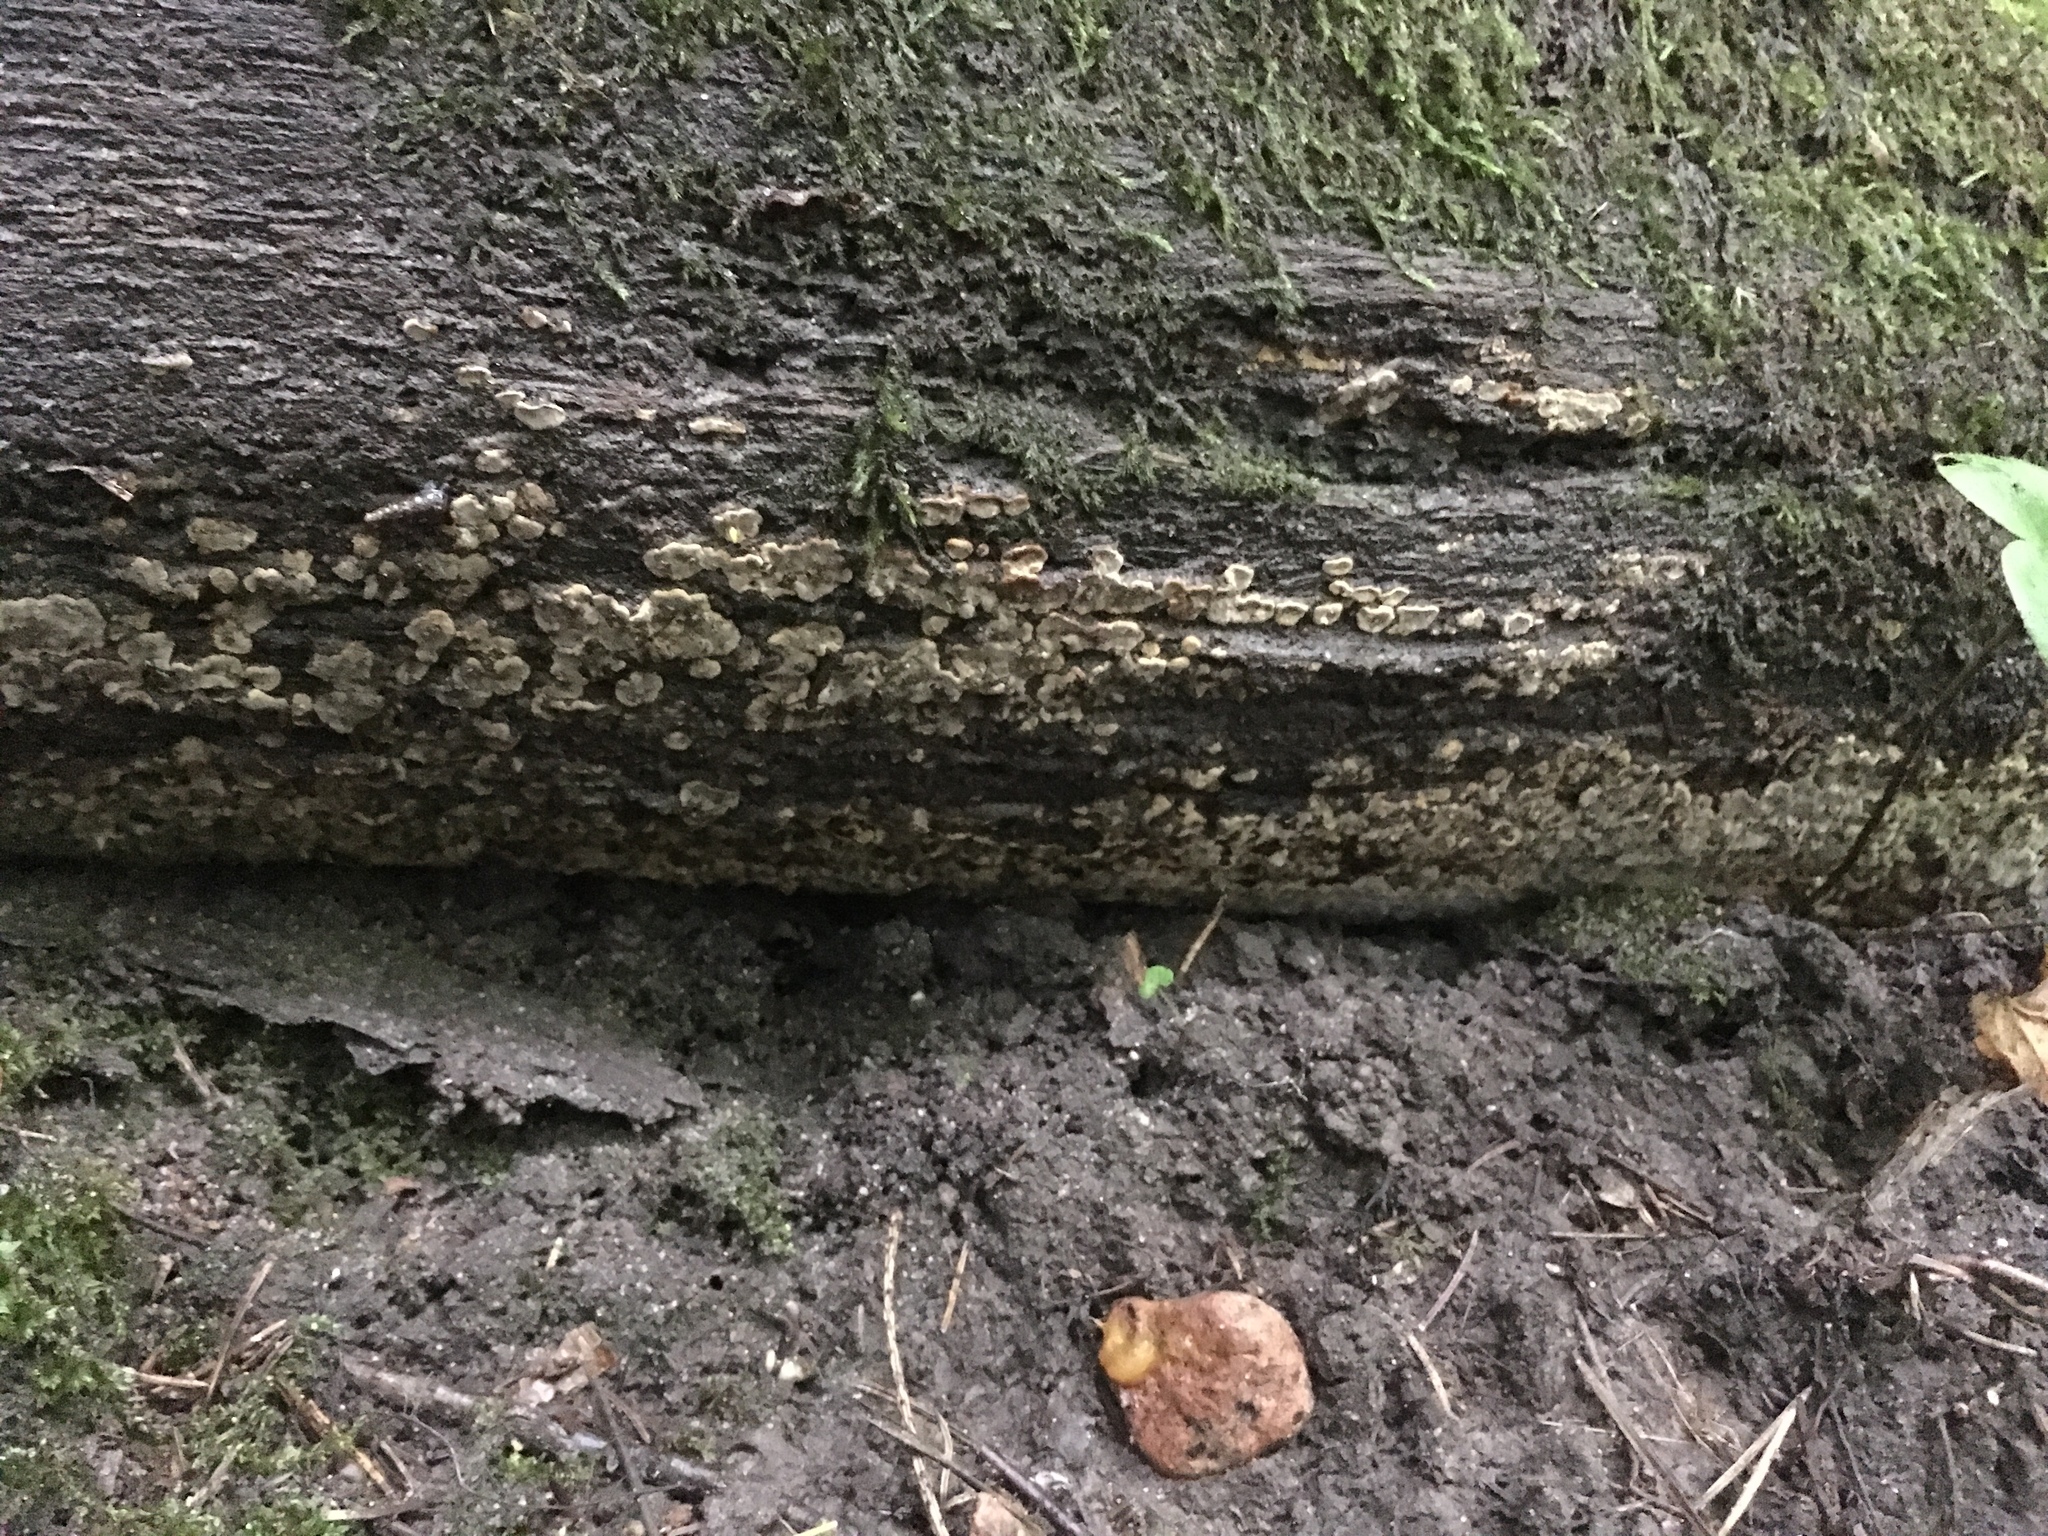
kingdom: Fungi
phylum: Basidiomycota
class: Agaricomycetes
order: Russulales
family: Stereaceae
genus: Xylobolus
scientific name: Xylobolus frustulatus
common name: Ceramic parchment
